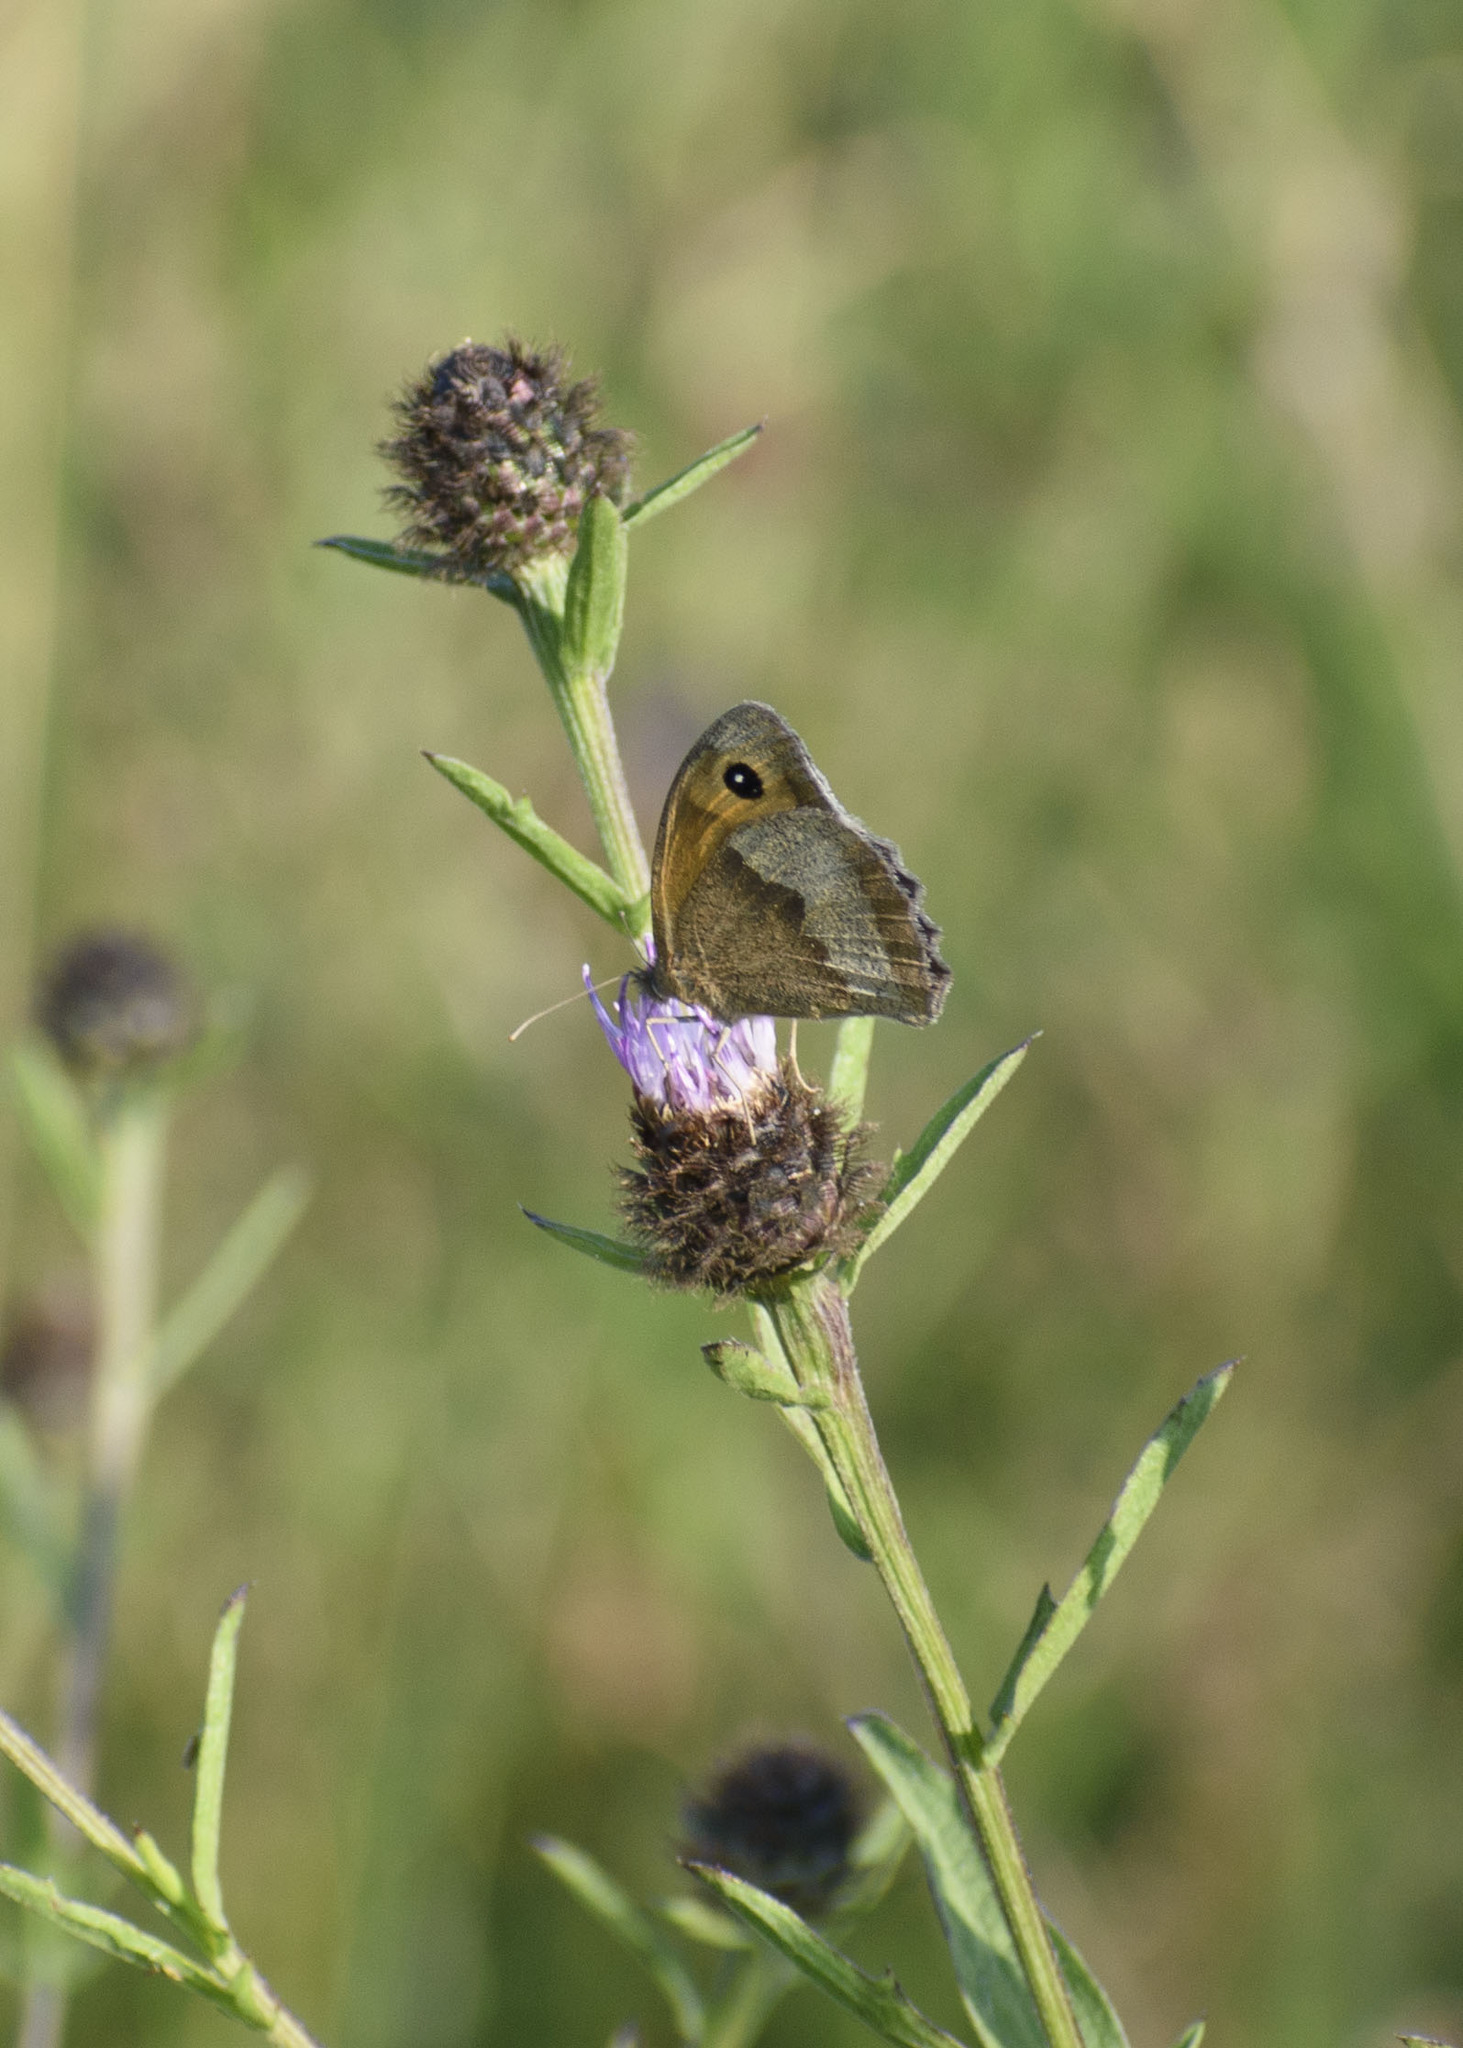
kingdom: Animalia
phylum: Arthropoda
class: Insecta
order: Lepidoptera
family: Nymphalidae
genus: Maniola
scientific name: Maniola jurtina
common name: Meadow brown
